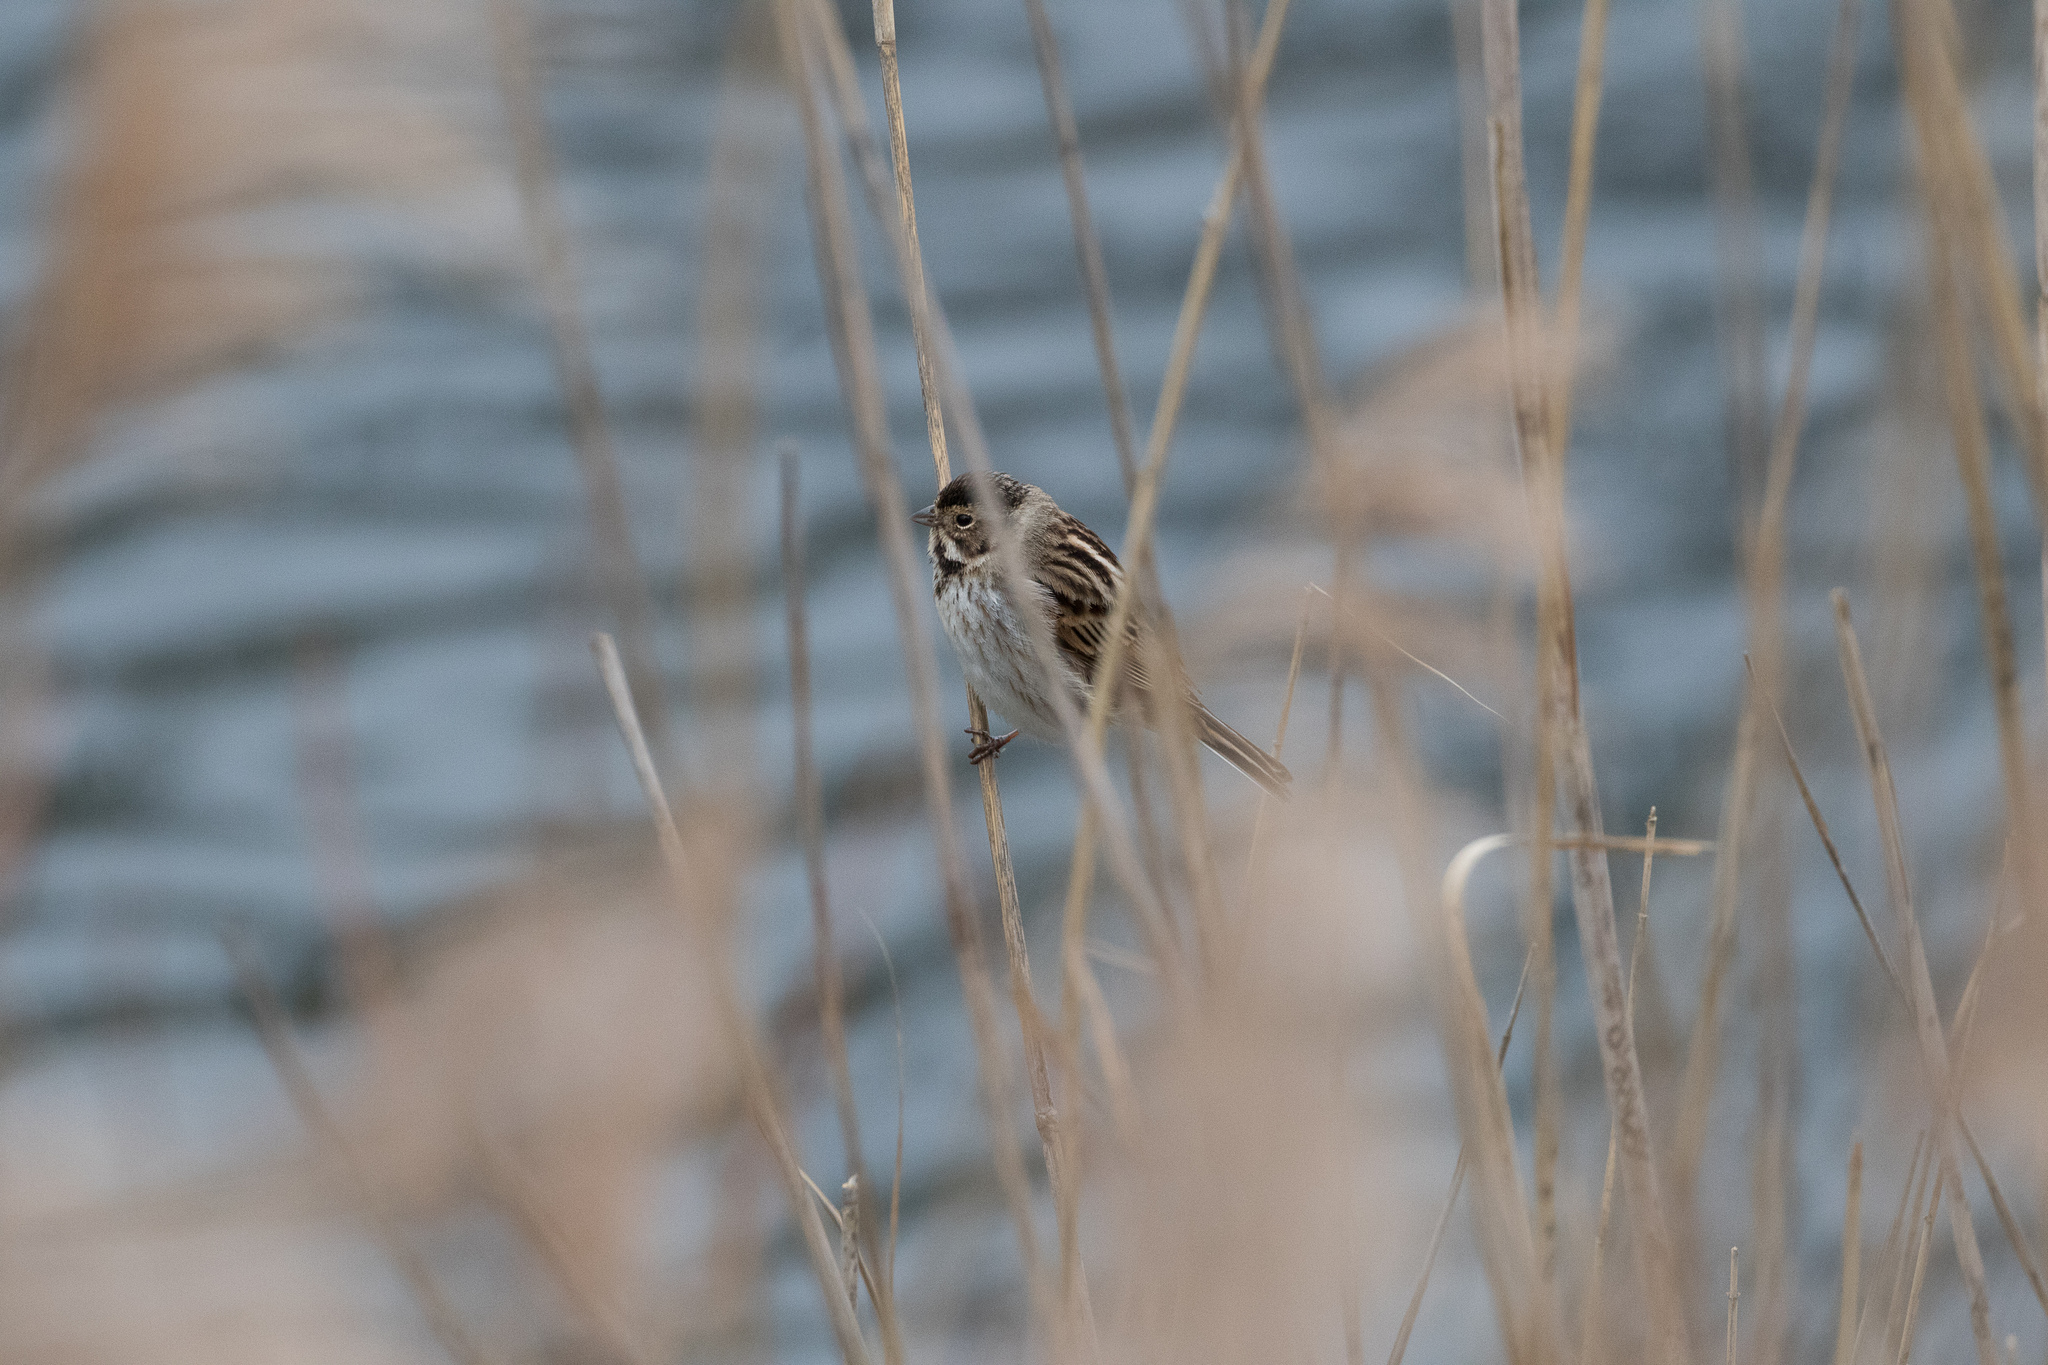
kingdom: Animalia
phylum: Chordata
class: Aves
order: Passeriformes
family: Emberizidae
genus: Emberiza
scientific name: Emberiza schoeniclus
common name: Reed bunting
